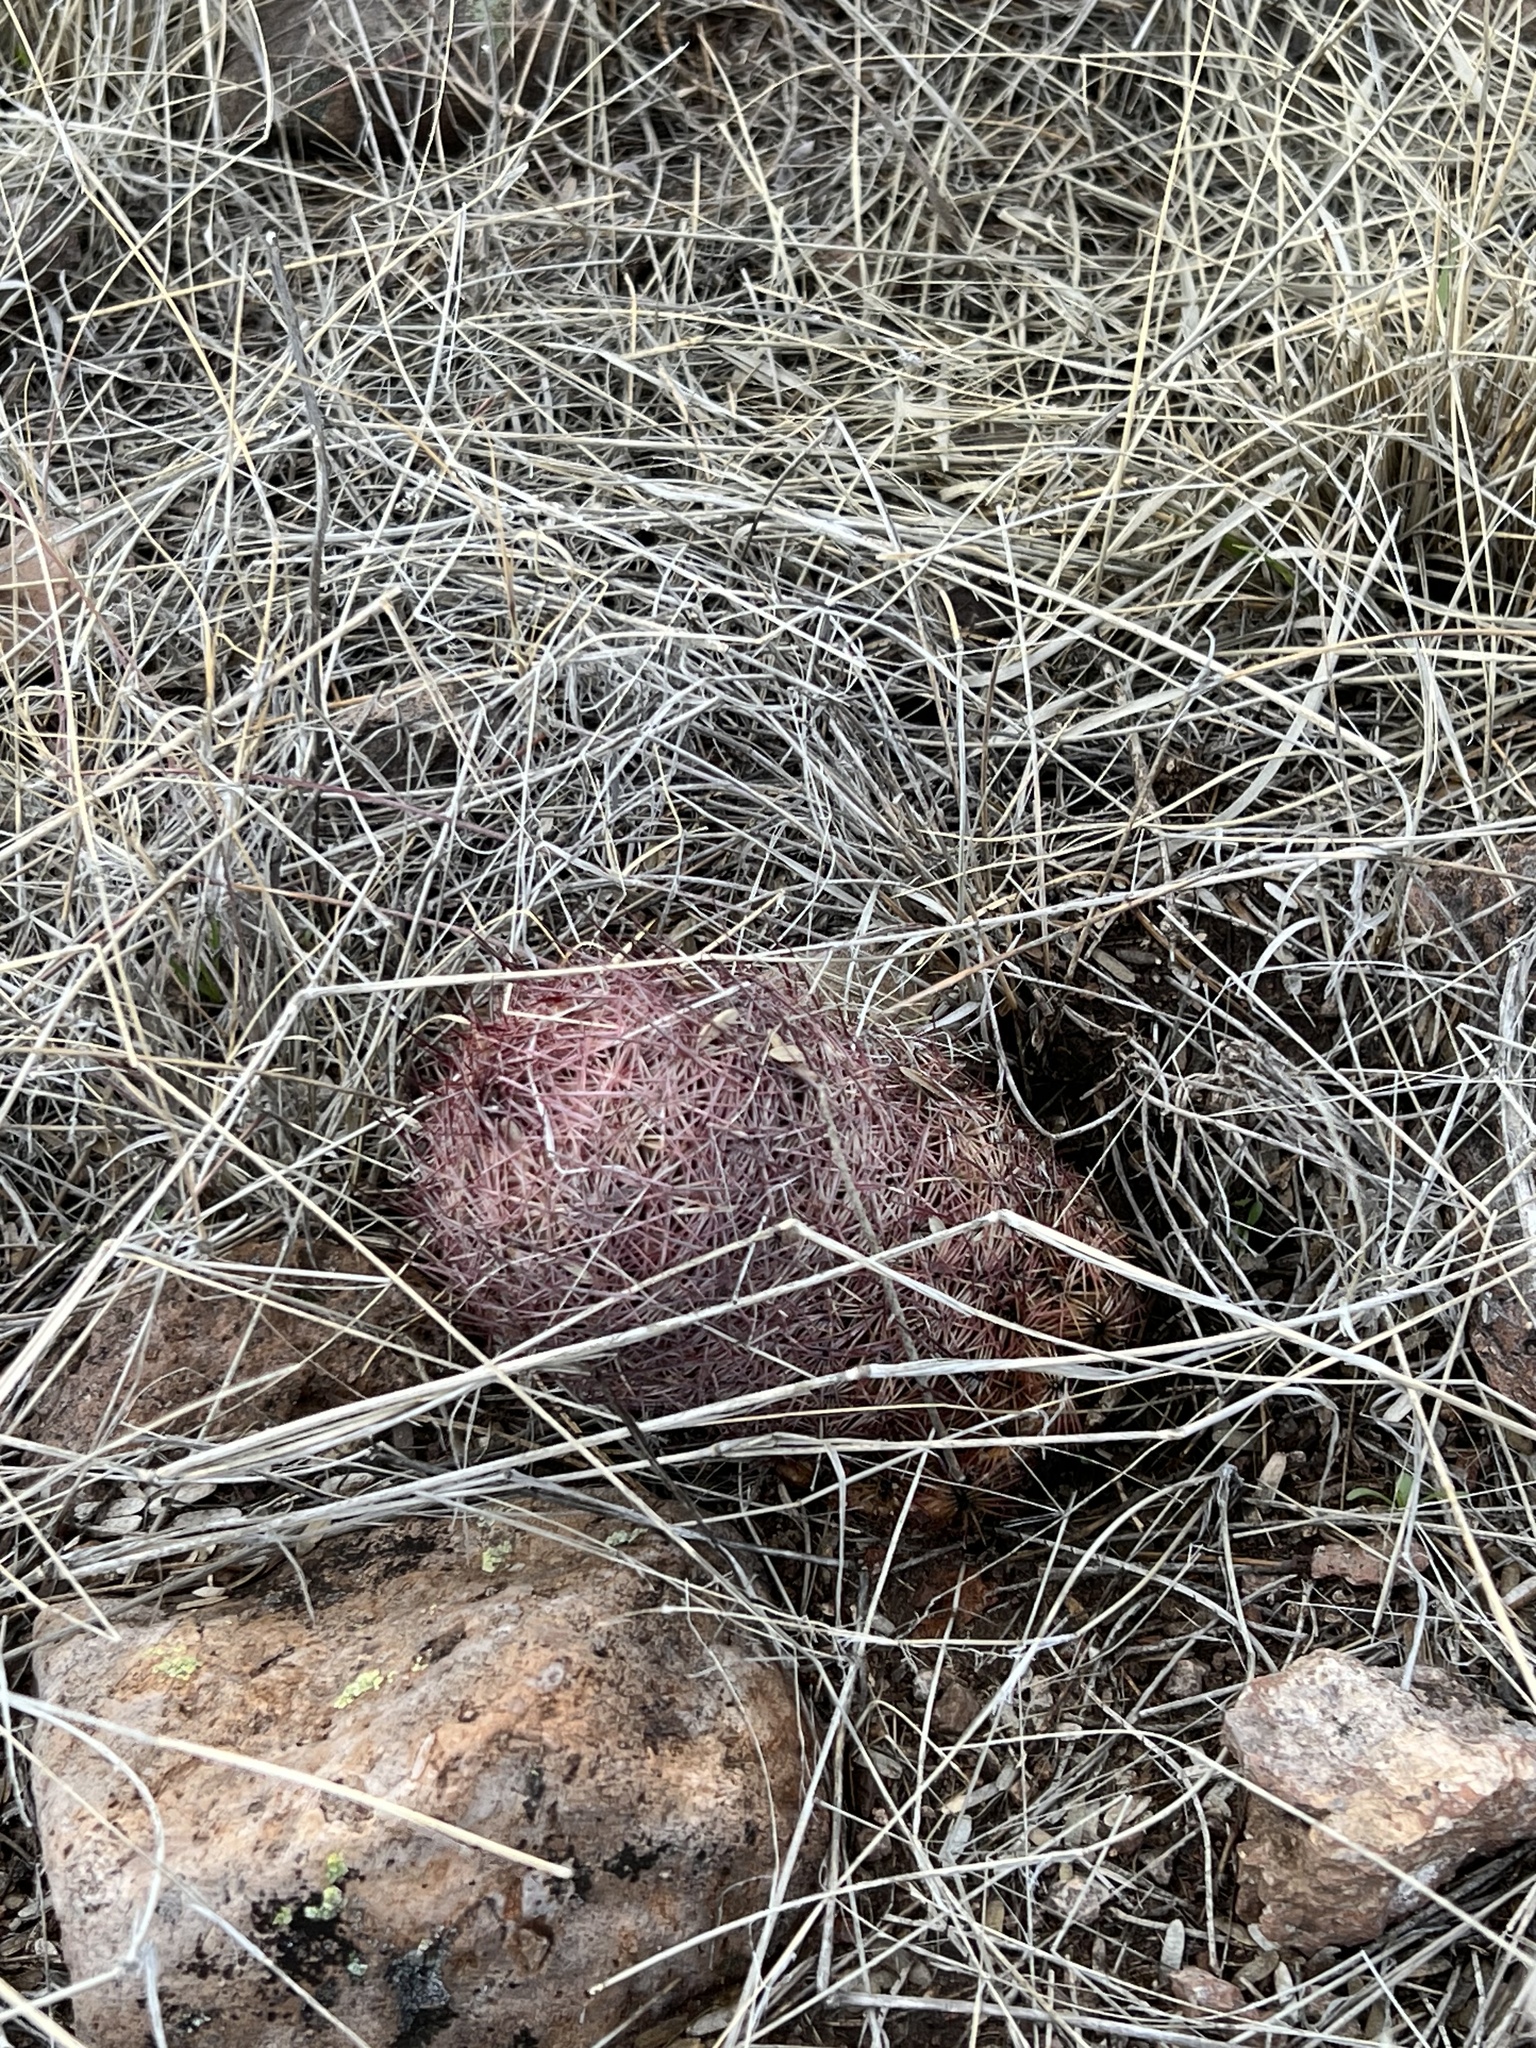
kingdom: Plantae
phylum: Tracheophyta
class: Magnoliopsida
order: Caryophyllales
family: Cactaceae
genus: Sclerocactus
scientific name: Sclerocactus johnsonii
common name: Eight-spine fishhook cactus
